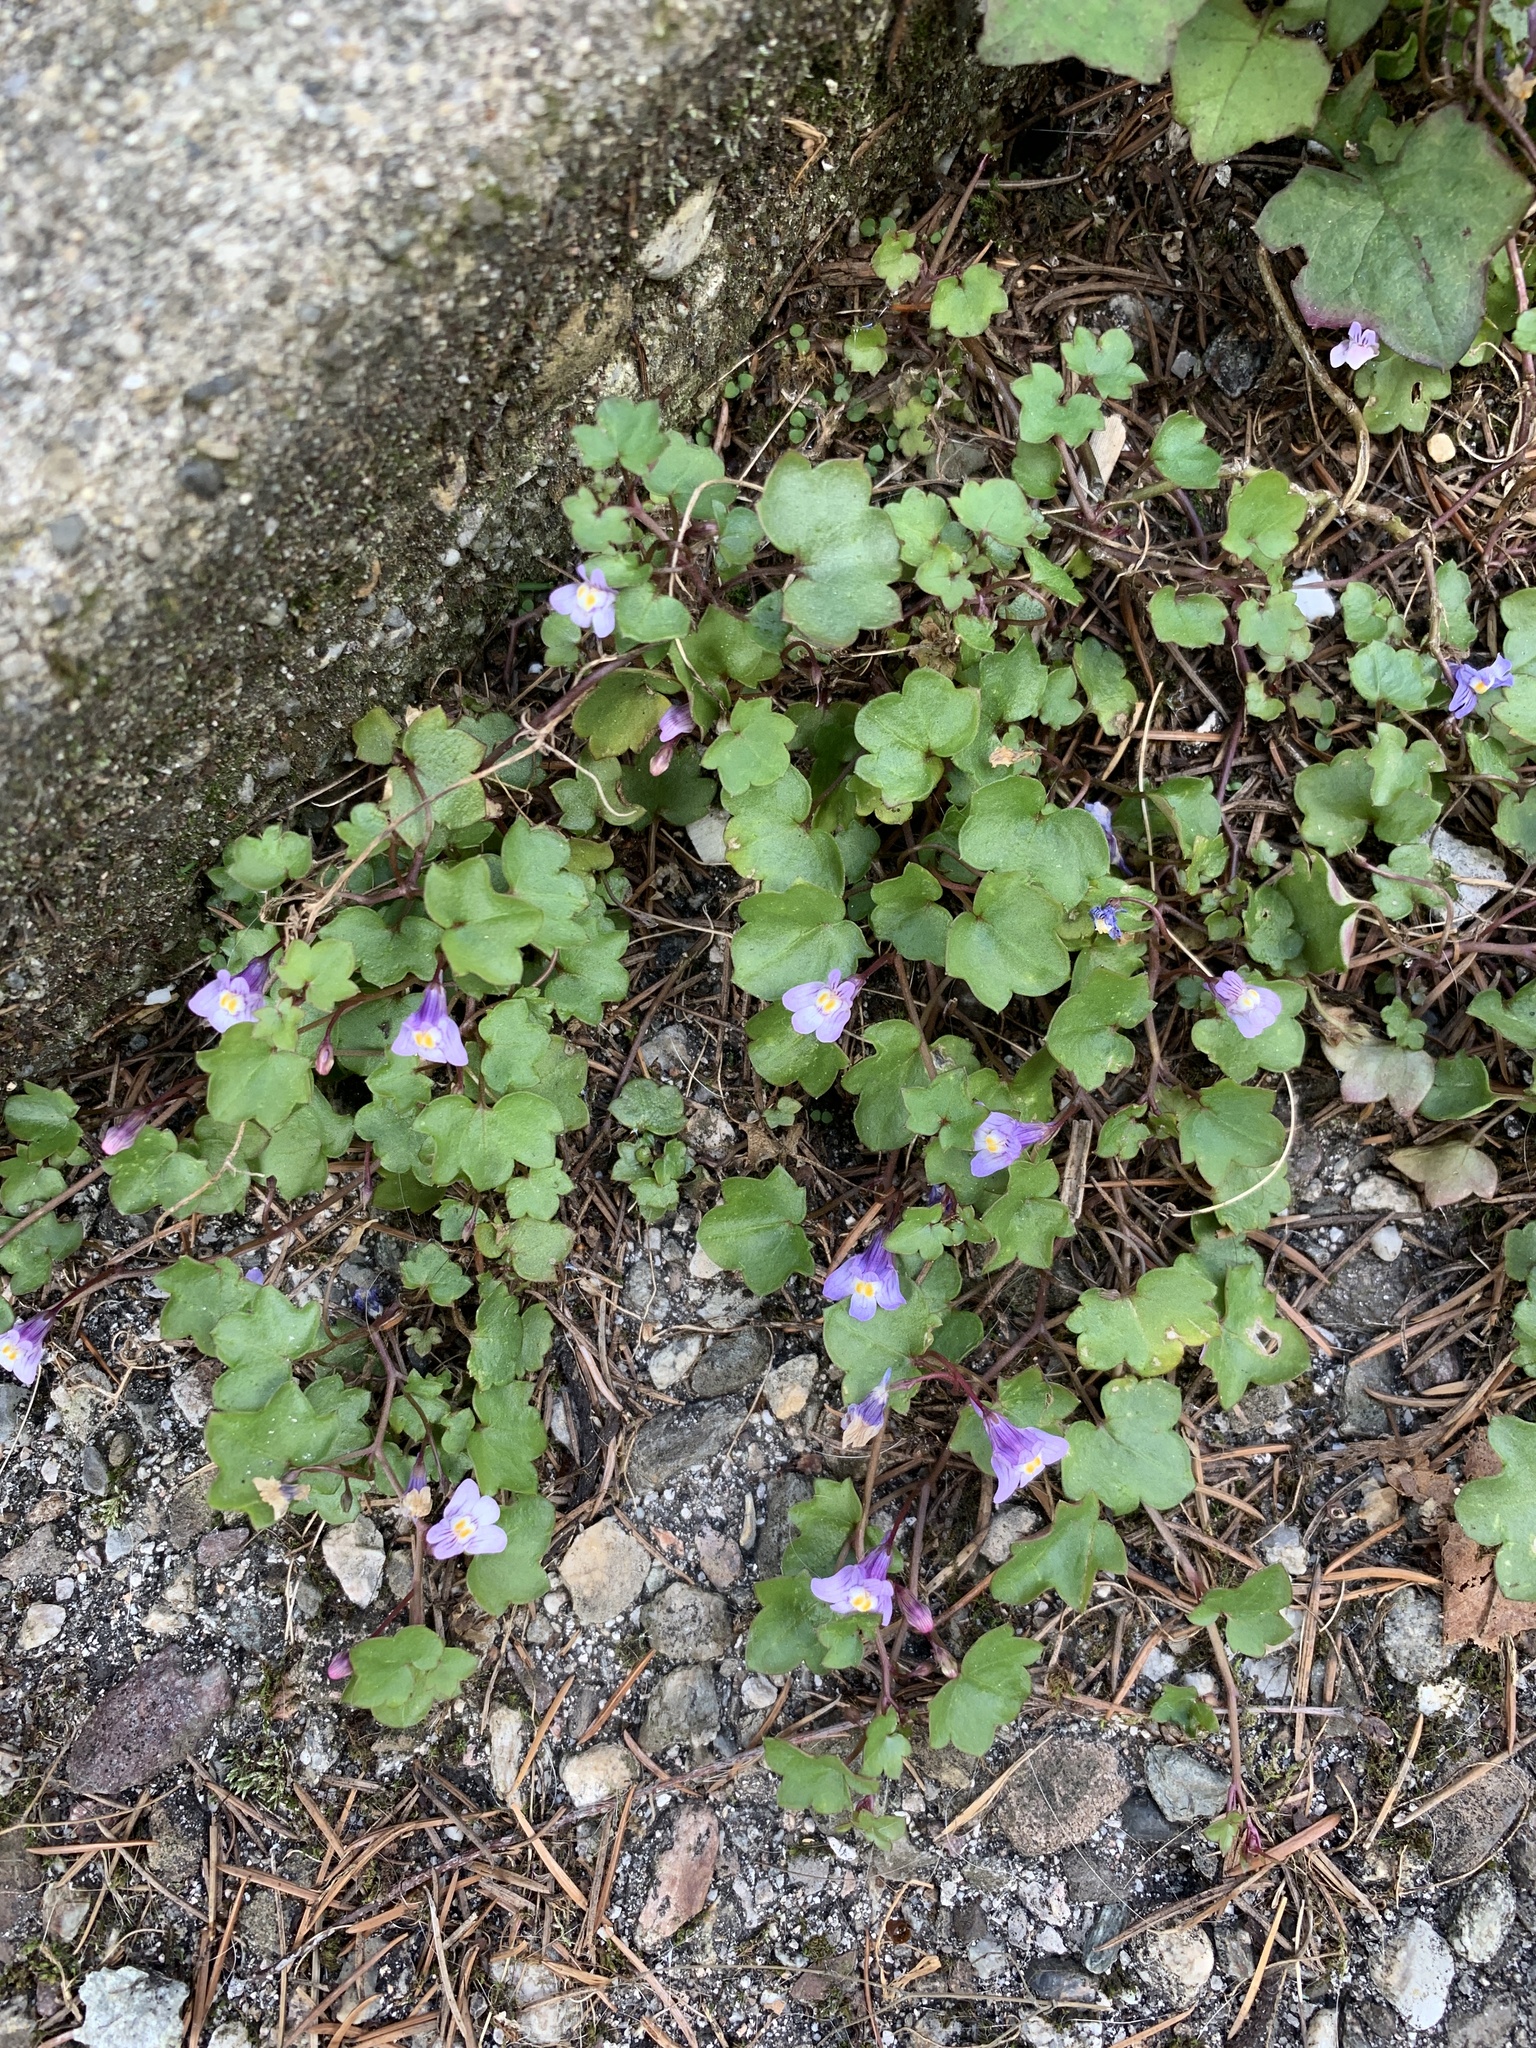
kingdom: Plantae
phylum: Tracheophyta
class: Magnoliopsida
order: Lamiales
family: Plantaginaceae
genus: Cymbalaria
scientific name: Cymbalaria muralis
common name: Ivy-leaved toadflax
